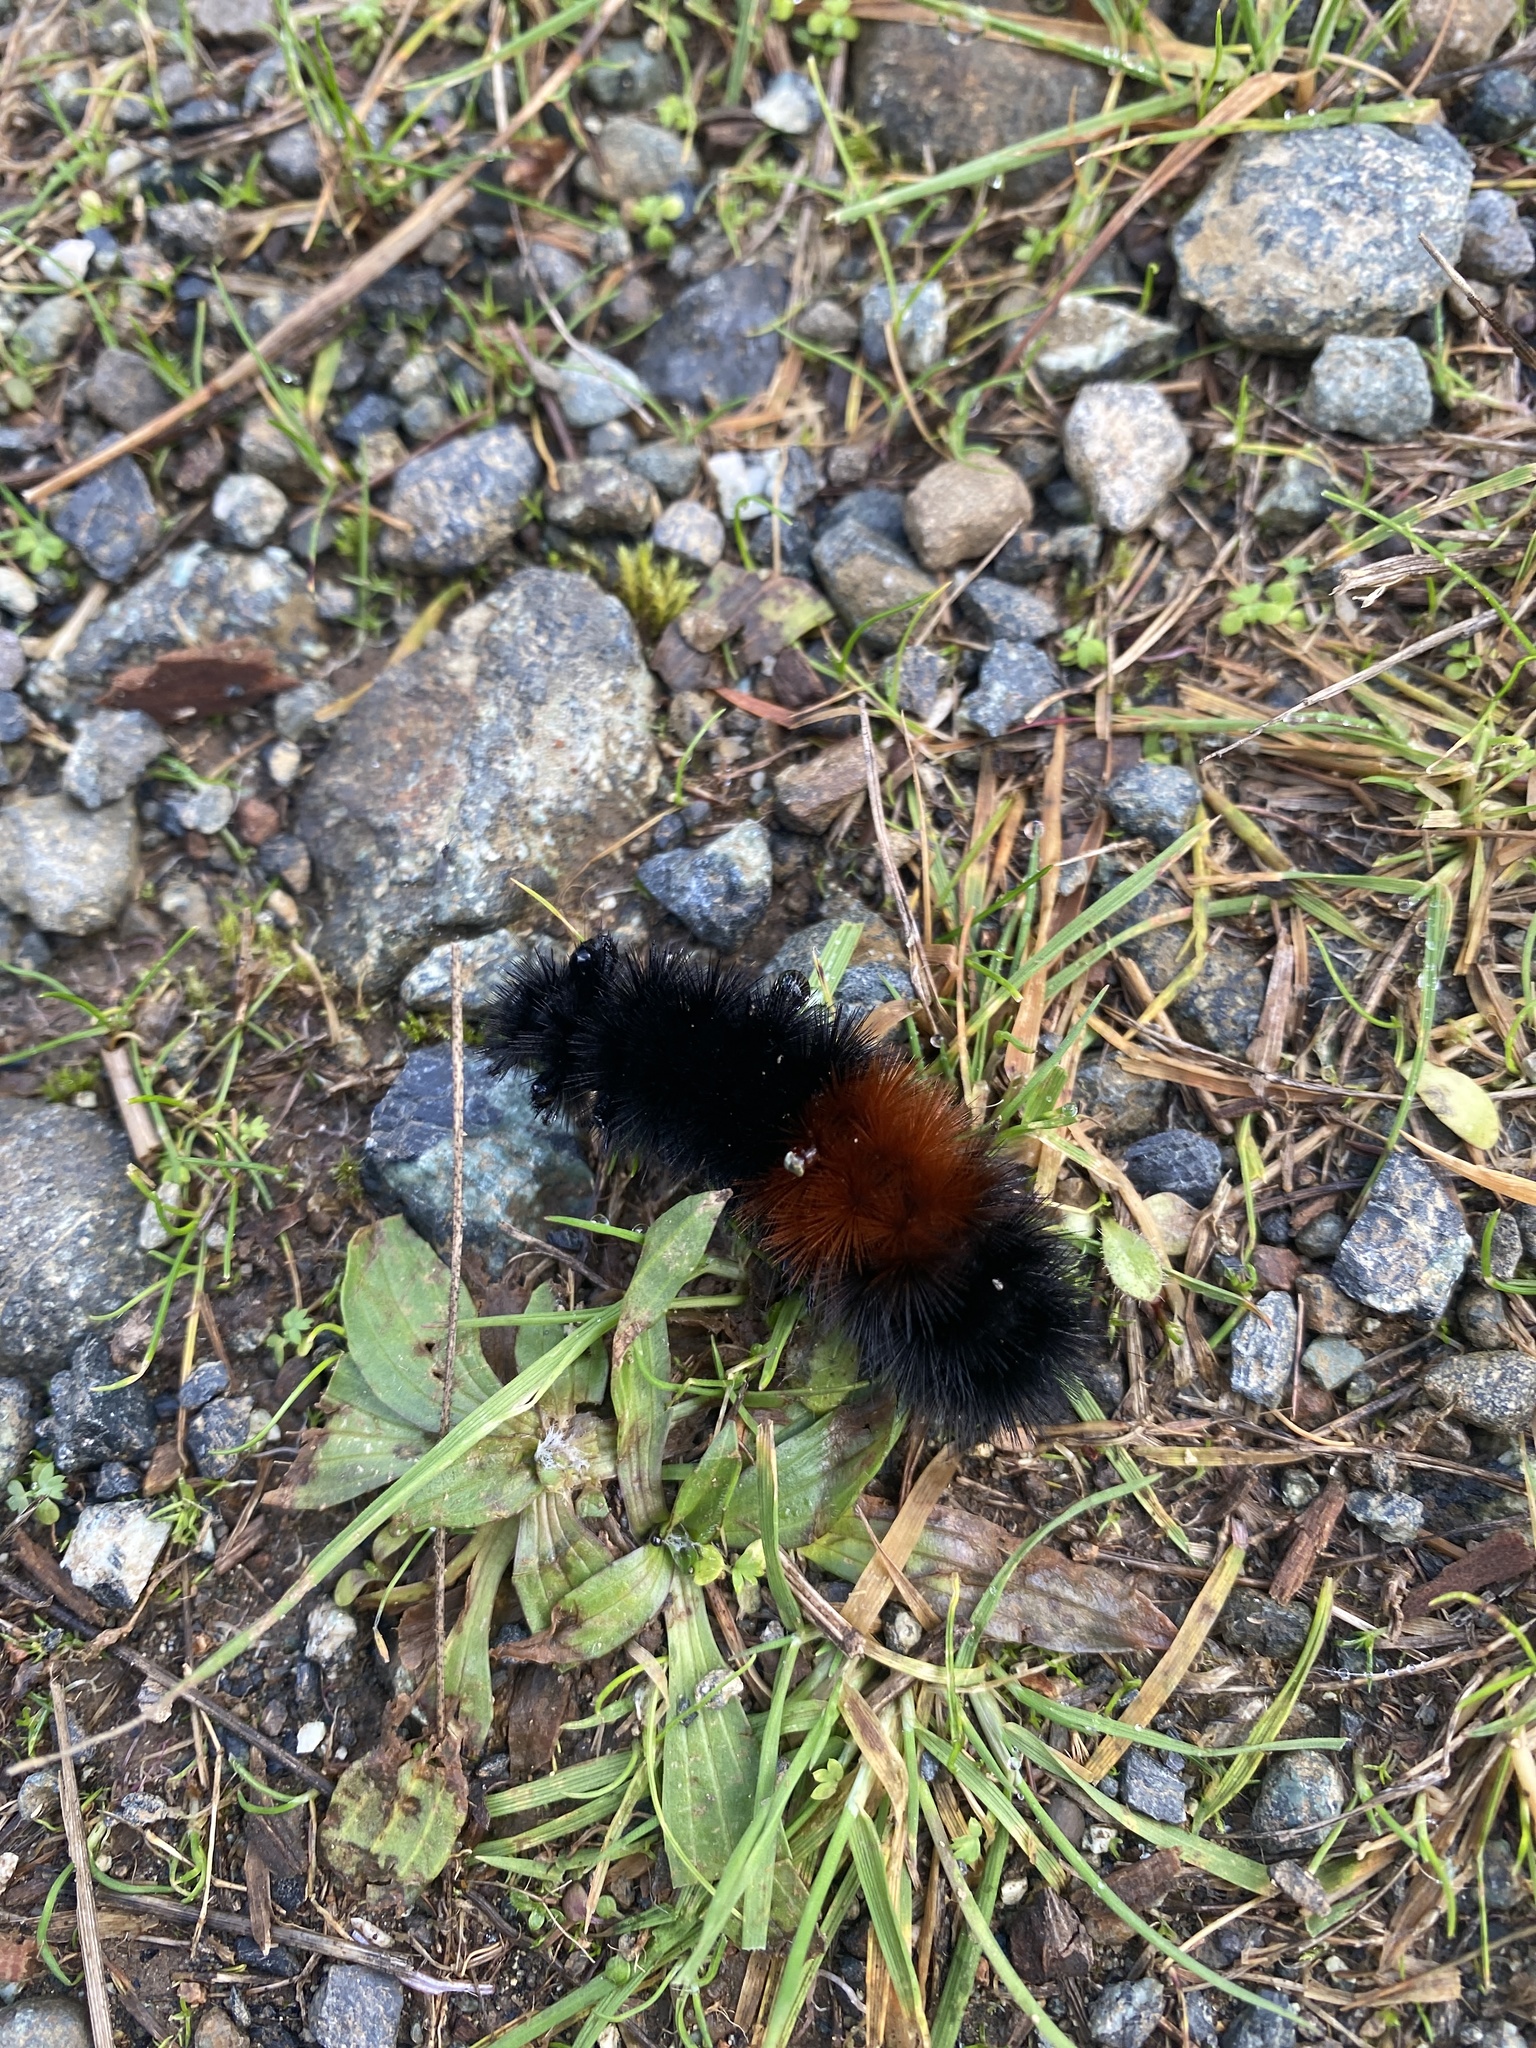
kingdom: Animalia
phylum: Arthropoda
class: Insecta
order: Lepidoptera
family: Erebidae
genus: Pyrrharctia
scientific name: Pyrrharctia isabella
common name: Isabella tiger moth
